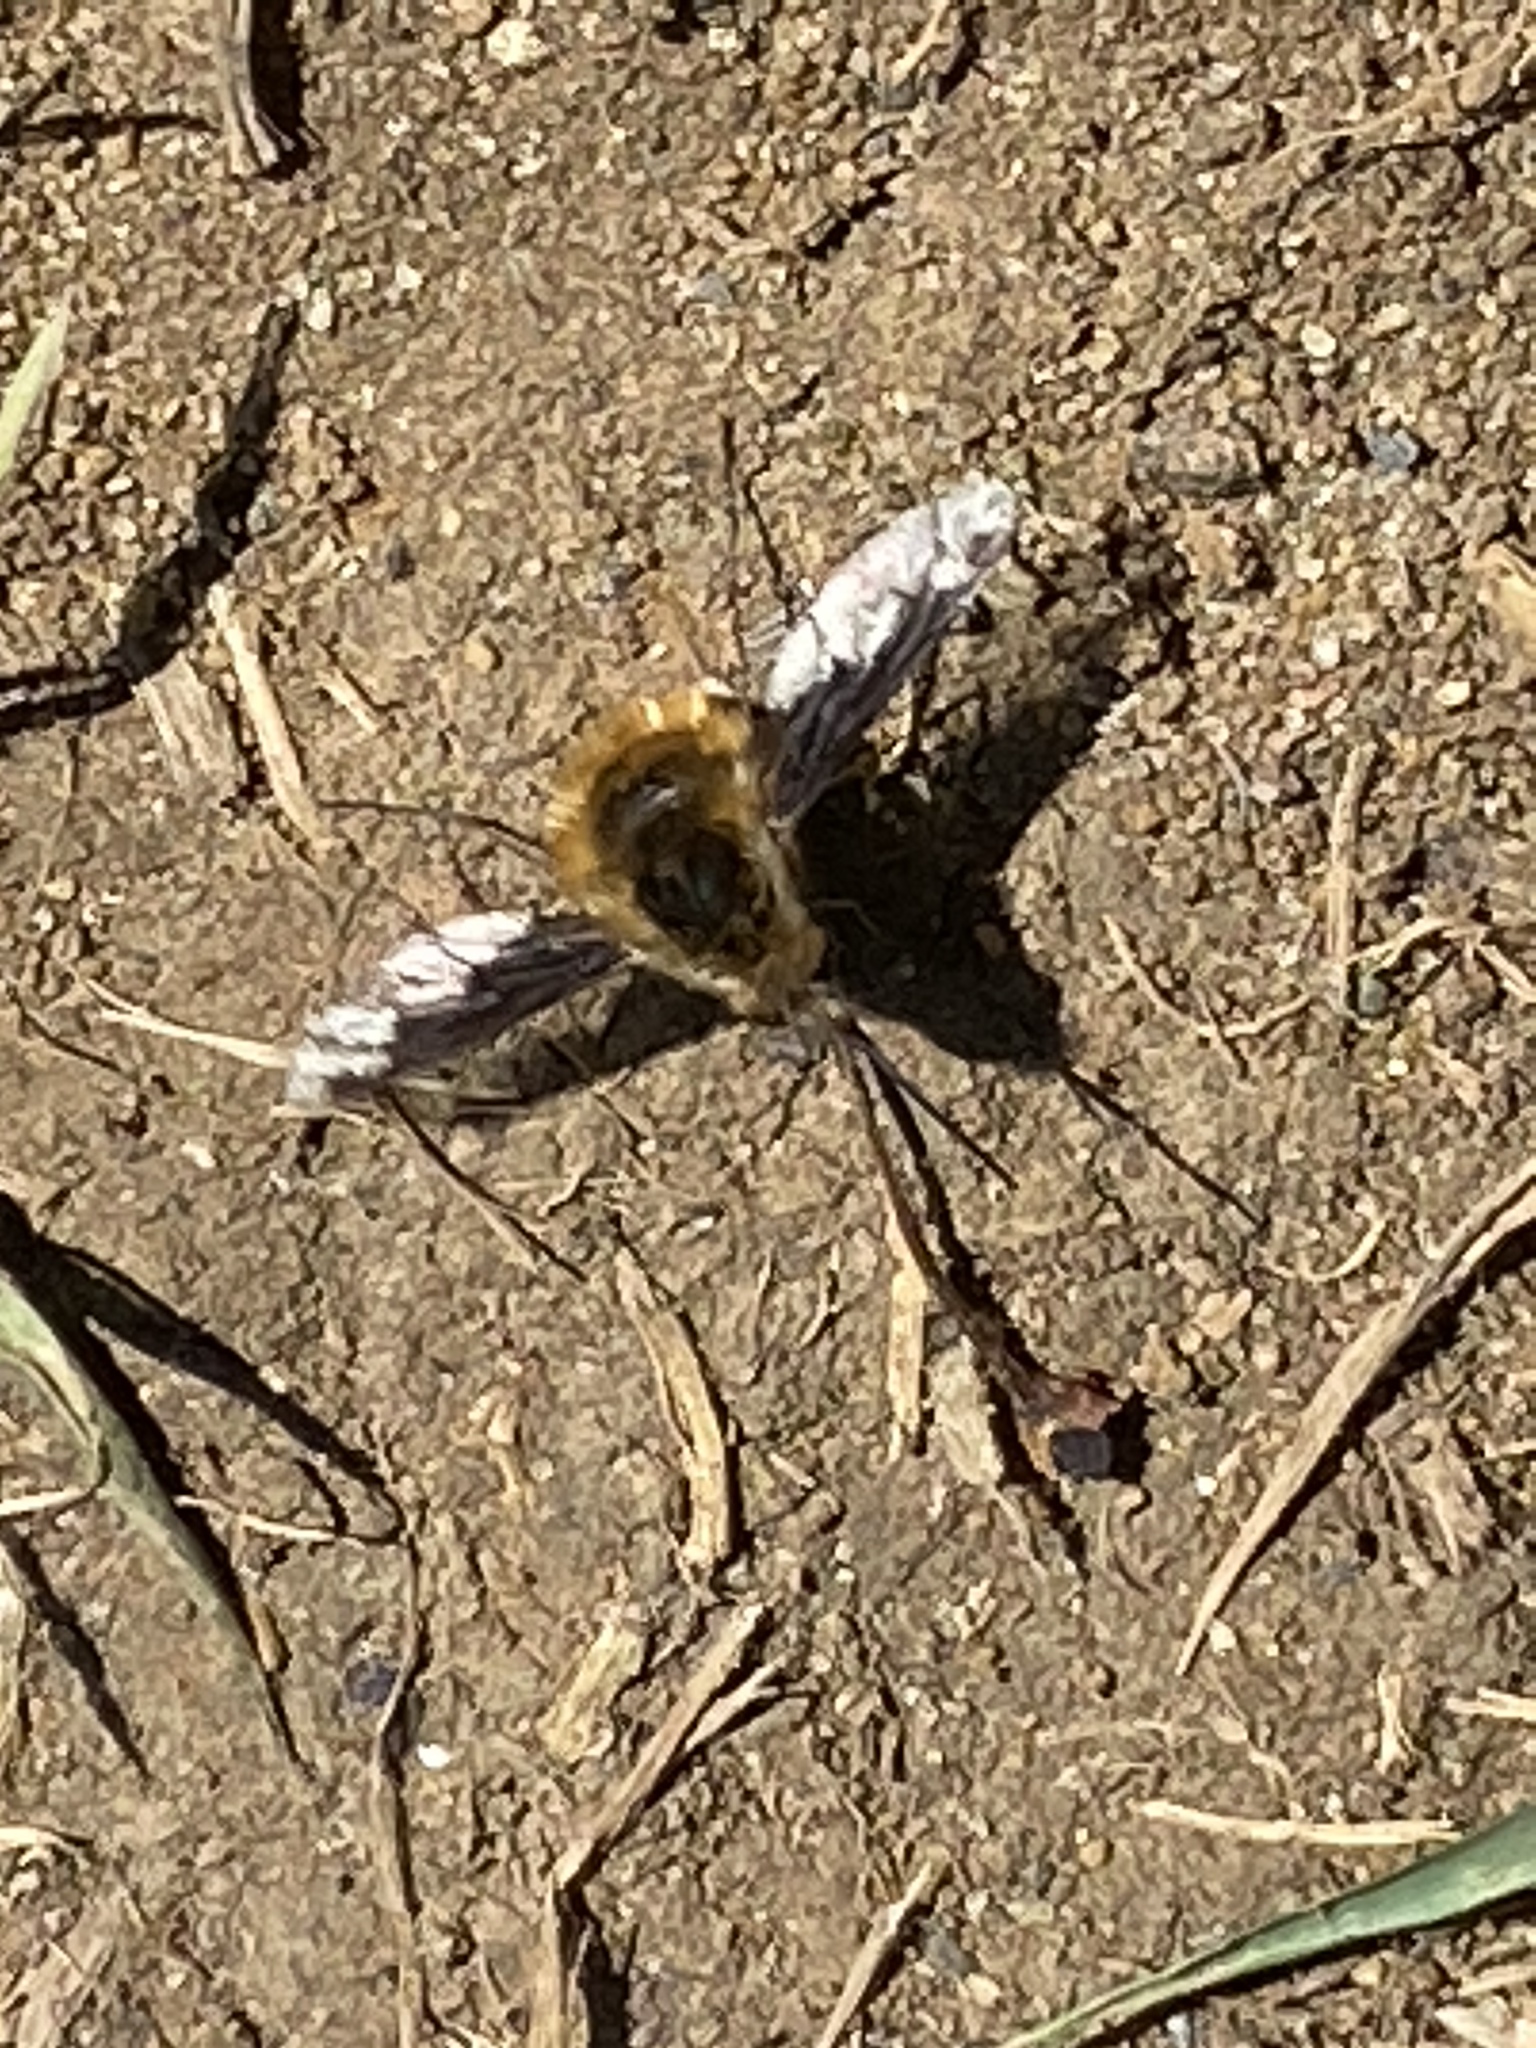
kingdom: Animalia
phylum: Arthropoda
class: Insecta
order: Diptera
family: Bombyliidae
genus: Bombylius
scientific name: Bombylius major
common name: Bee fly
